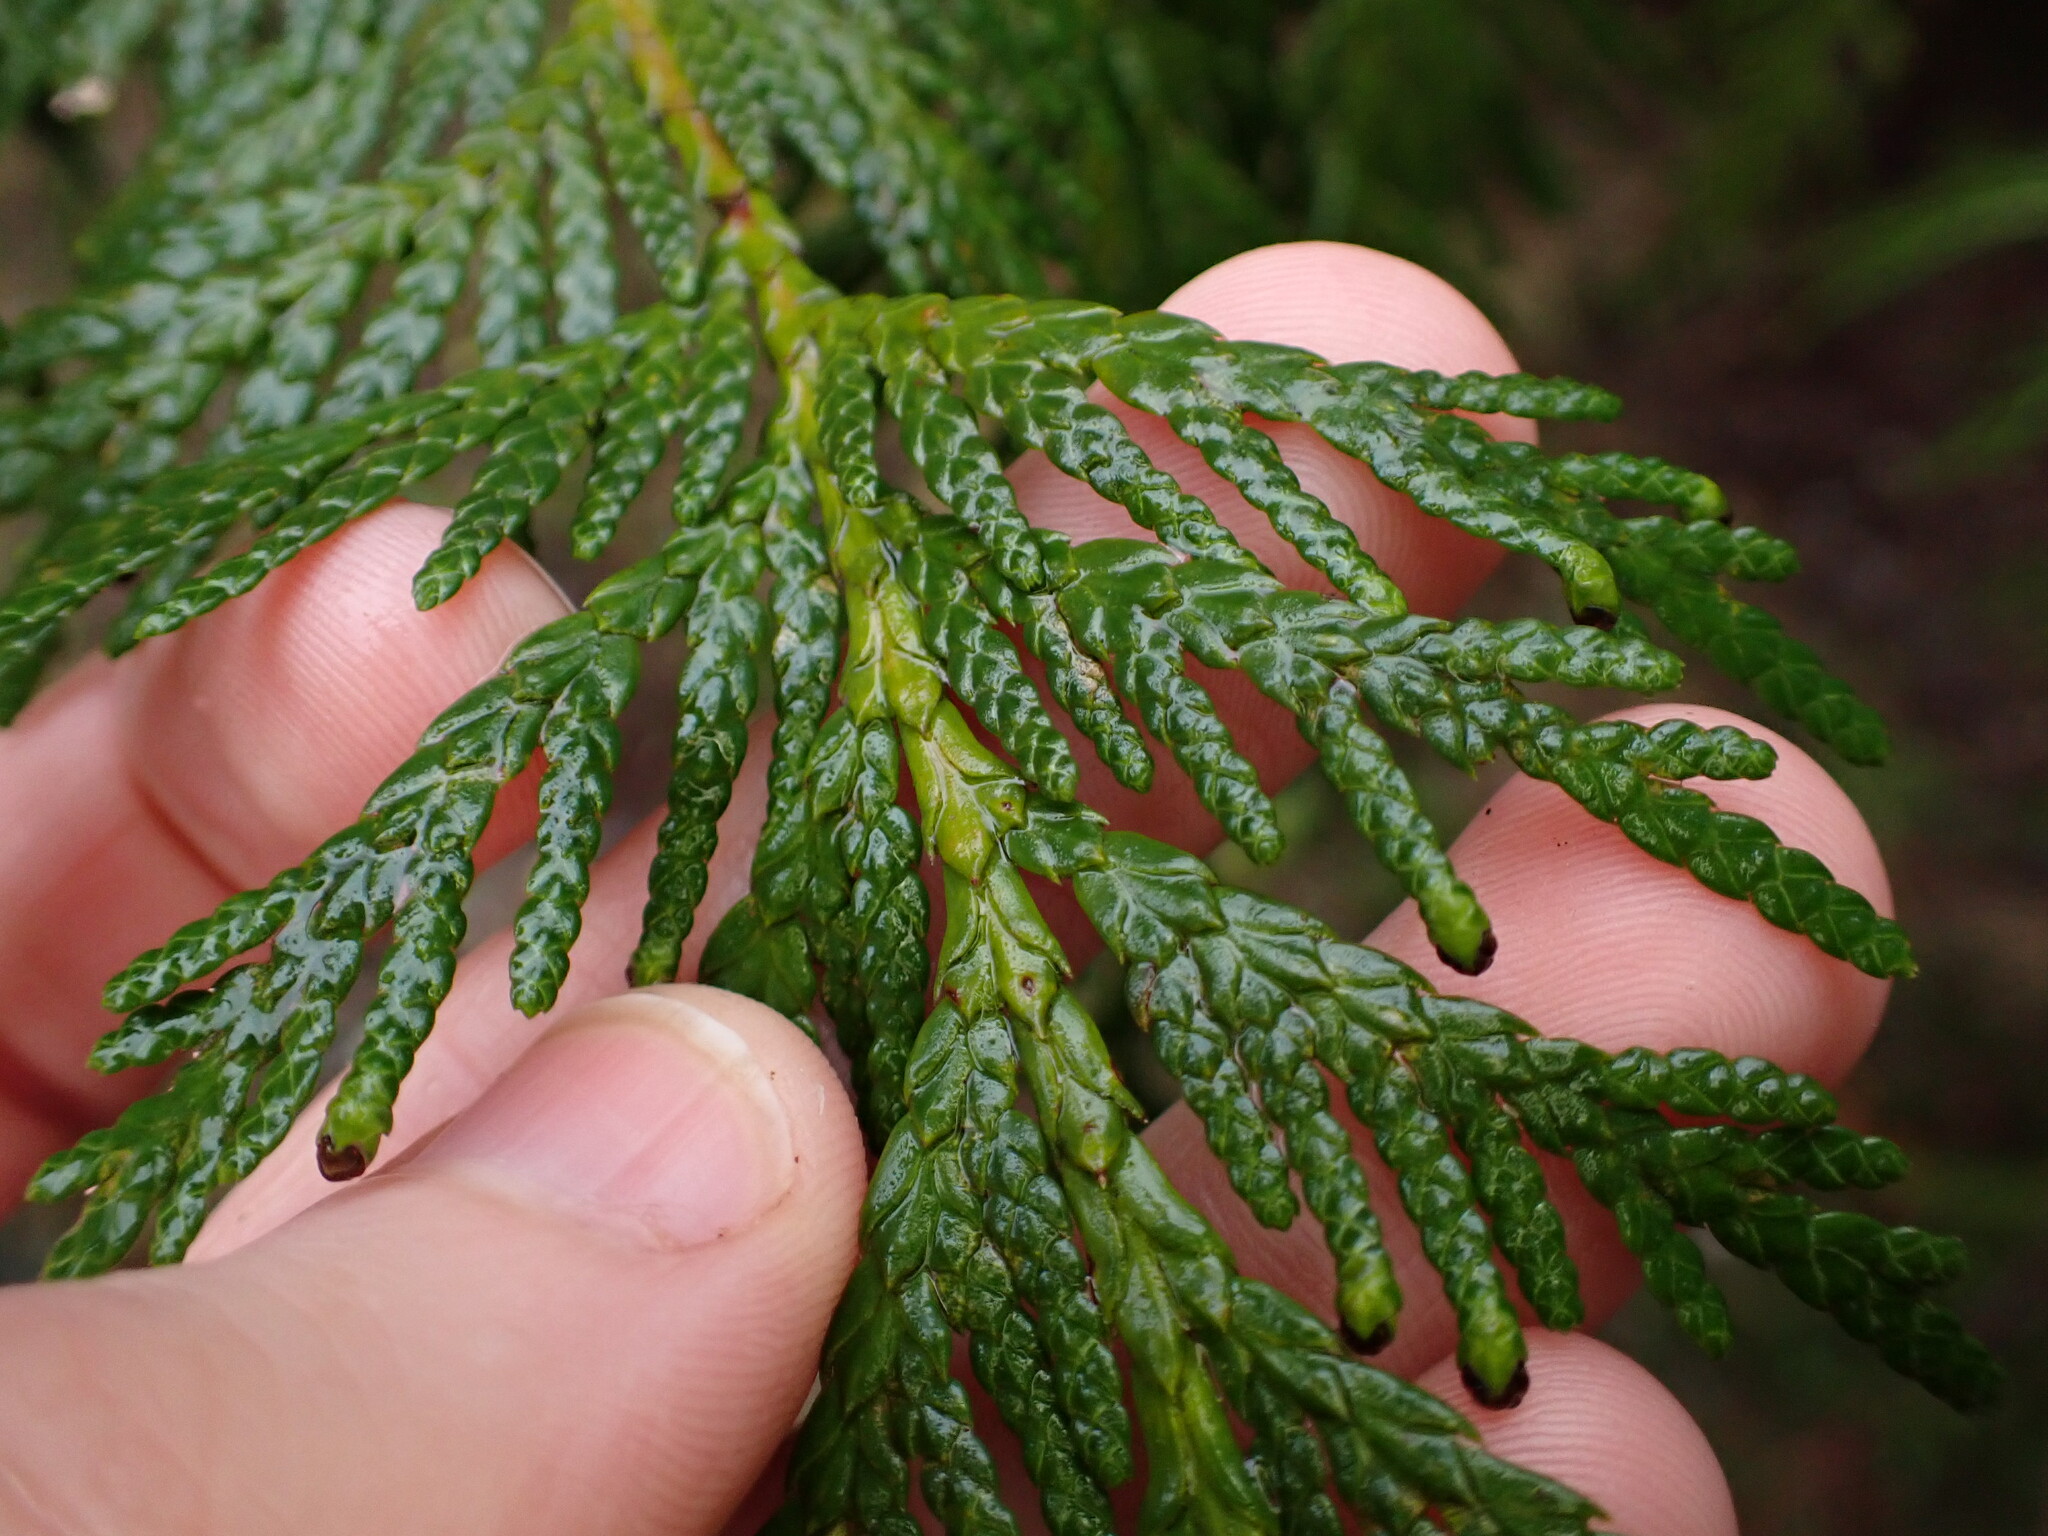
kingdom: Plantae
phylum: Tracheophyta
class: Pinopsida
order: Pinales
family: Cupressaceae
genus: Thuja
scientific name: Thuja plicata
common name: Western red-cedar
